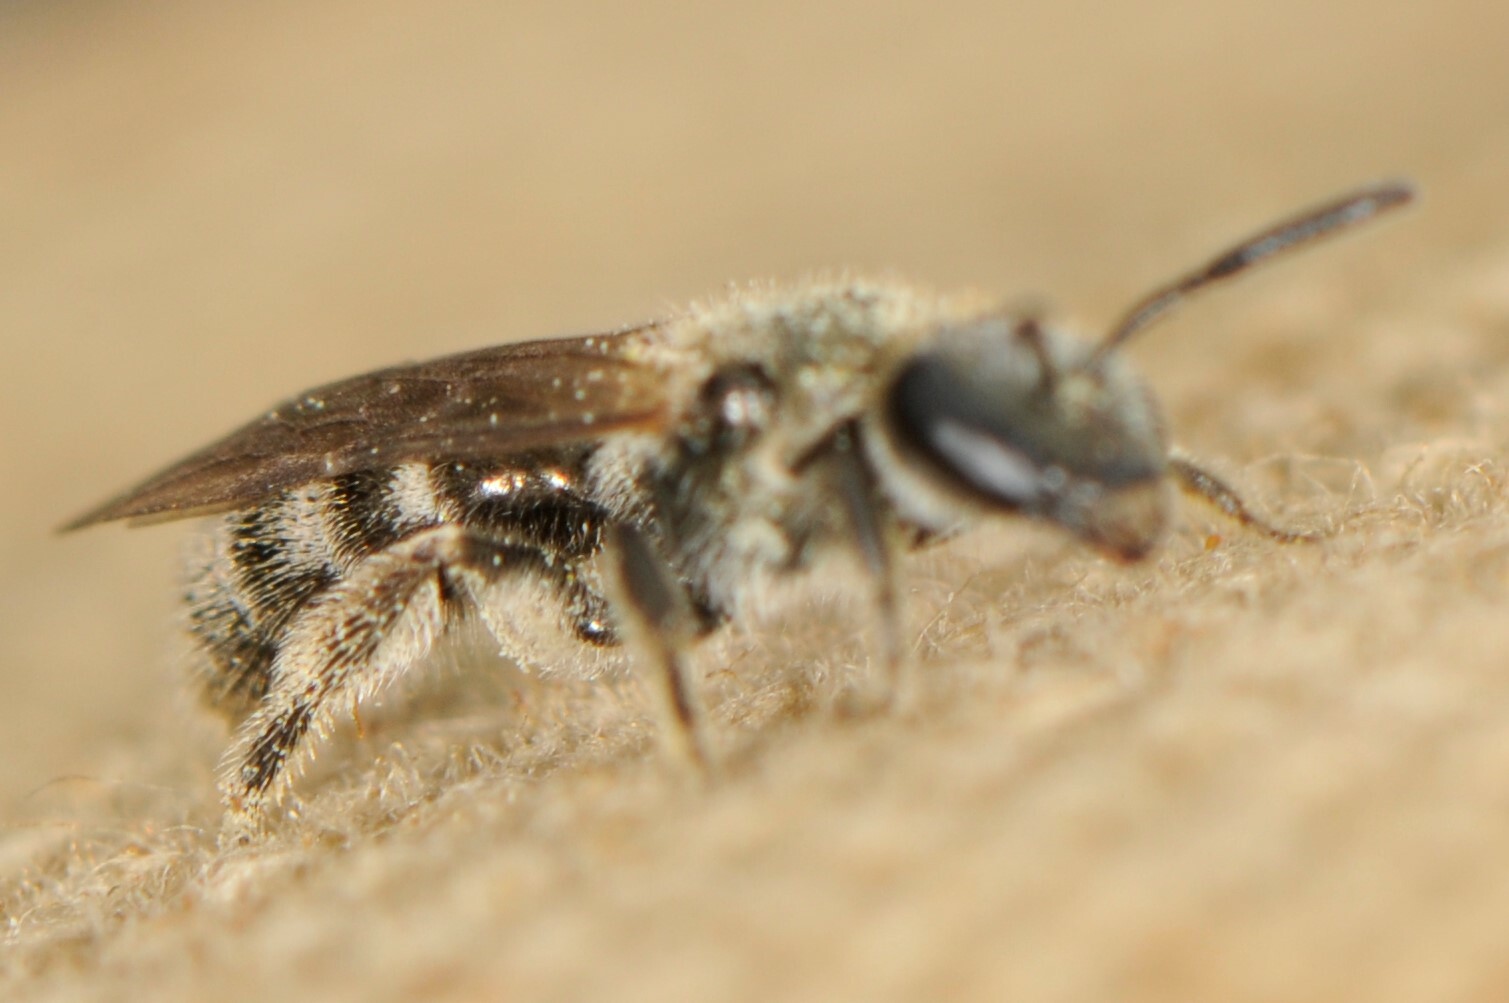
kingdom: Animalia
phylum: Arthropoda
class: Insecta
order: Hymenoptera
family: Halictidae
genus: Dialictus
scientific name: Dialictus
